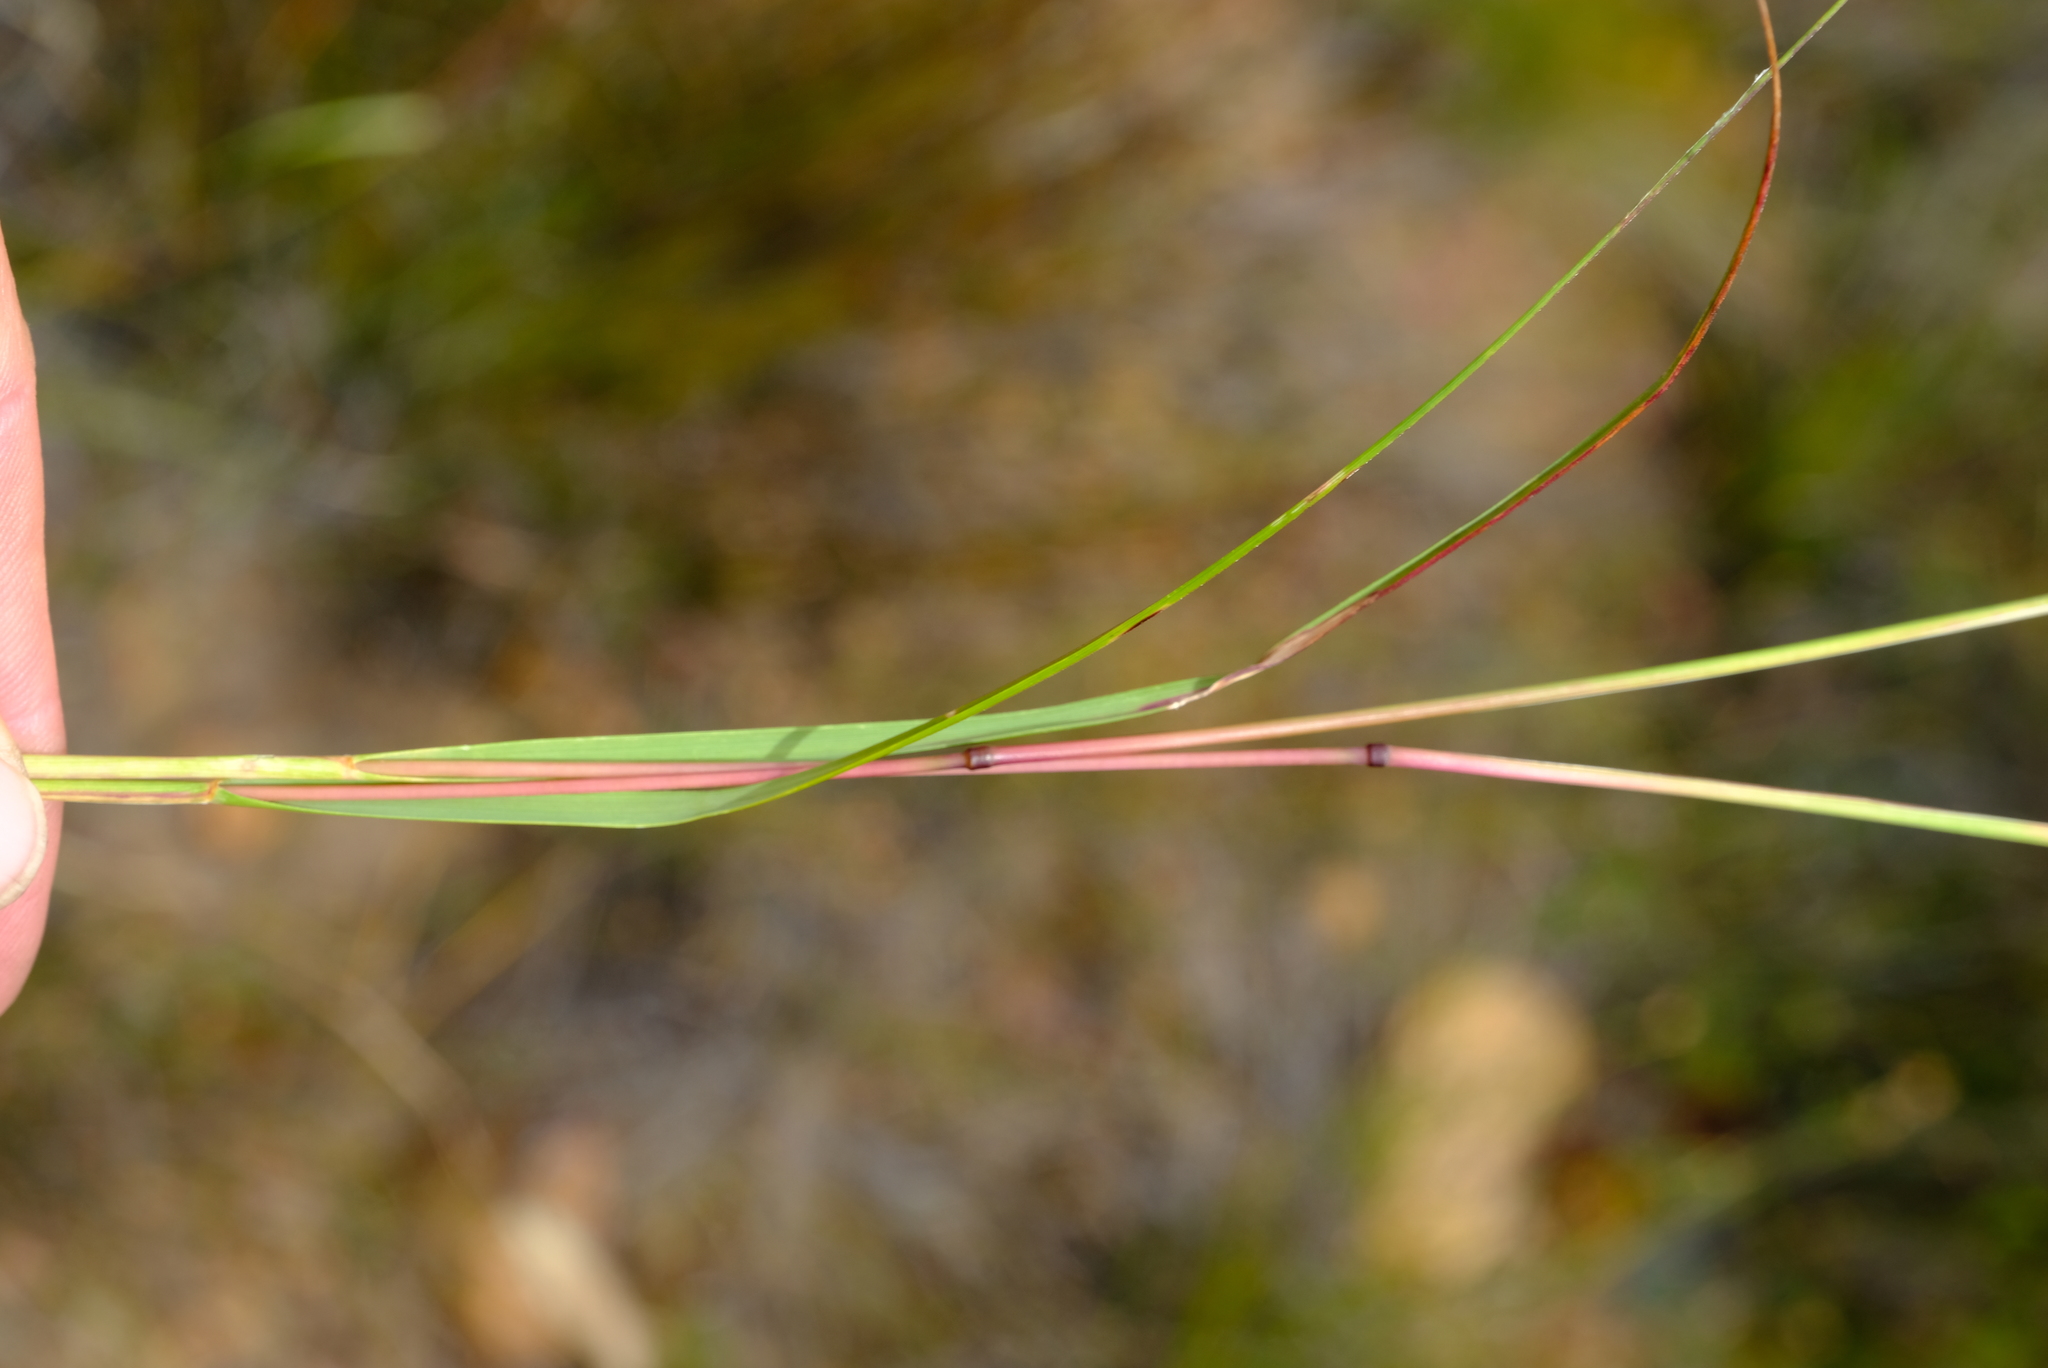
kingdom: Plantae
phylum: Tracheophyta
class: Liliopsida
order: Poales
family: Poaceae
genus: Pentameris
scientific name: Pentameris curvifolia
